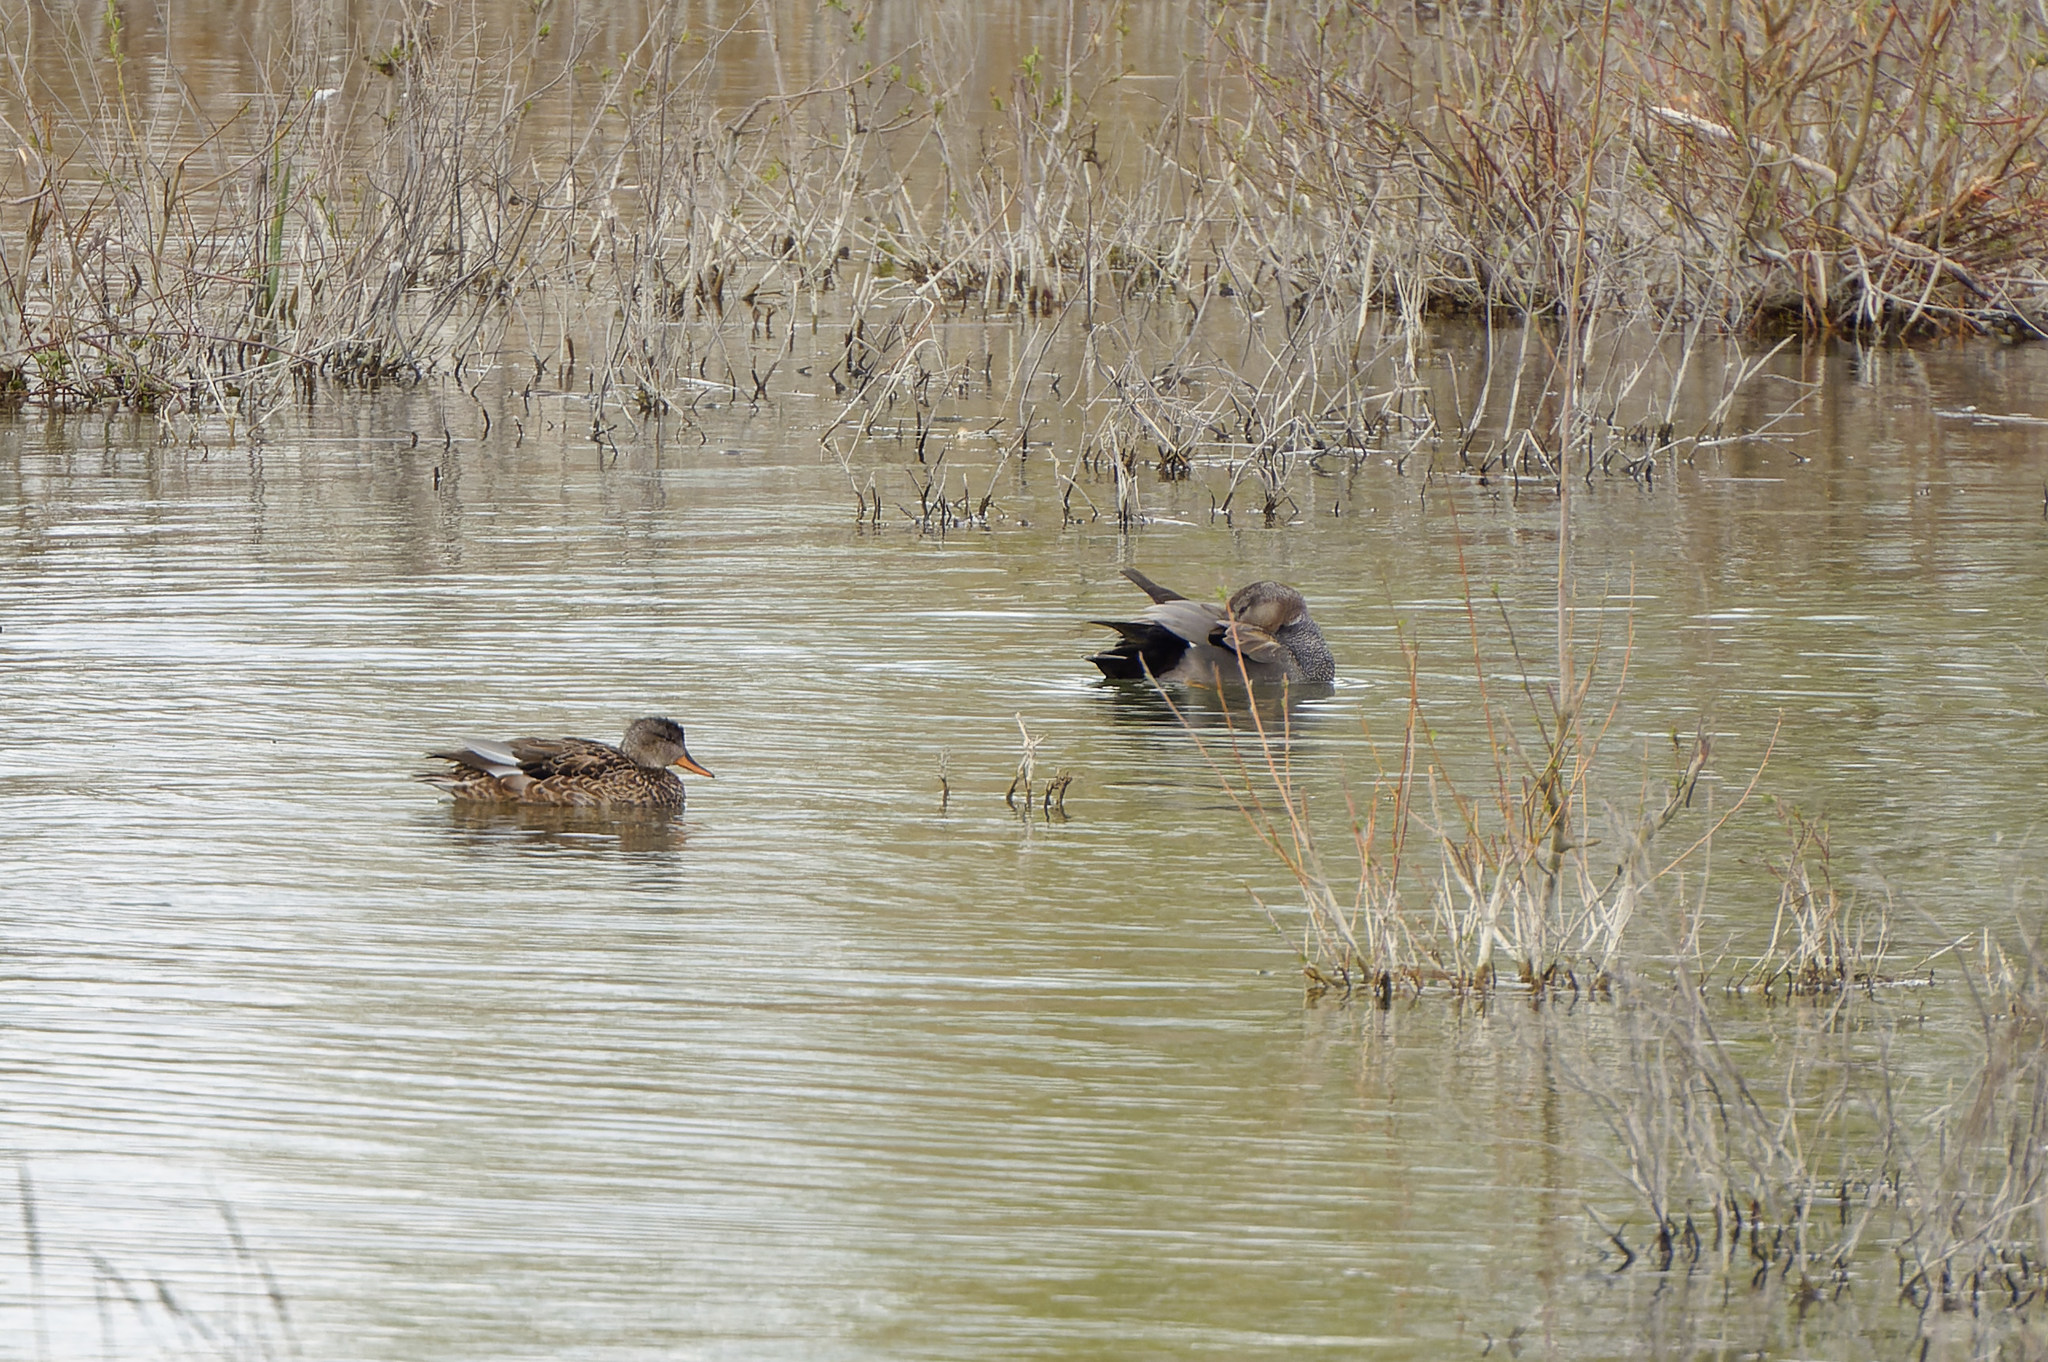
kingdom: Animalia
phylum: Chordata
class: Aves
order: Anseriformes
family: Anatidae
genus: Mareca
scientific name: Mareca strepera
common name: Gadwall
